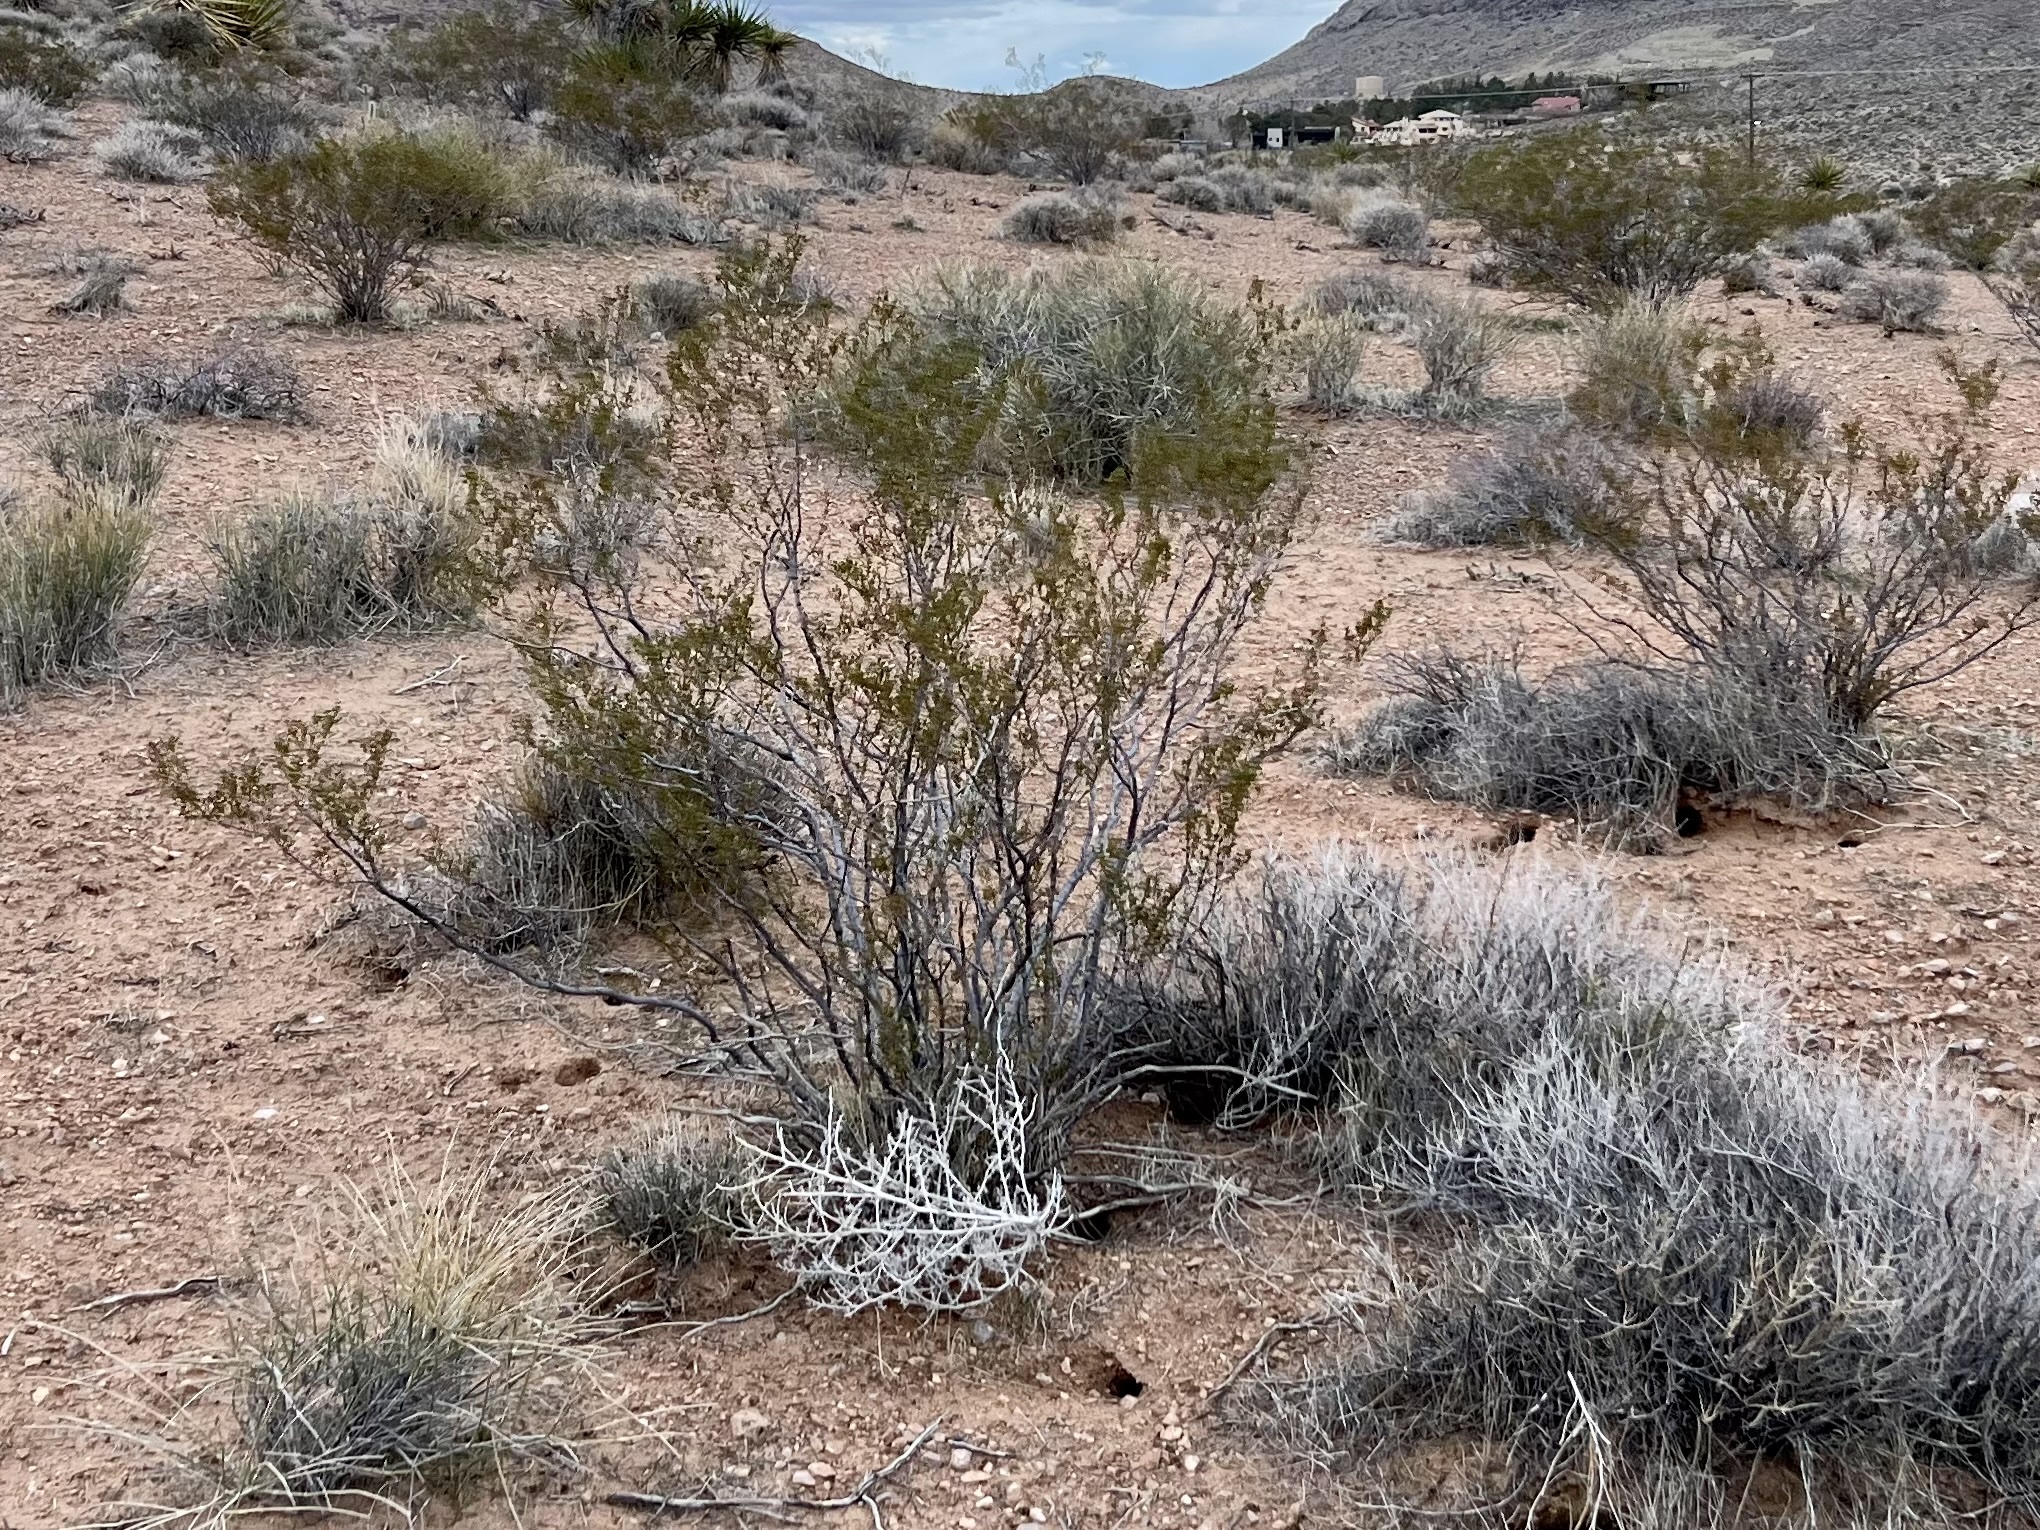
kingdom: Plantae
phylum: Tracheophyta
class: Magnoliopsida
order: Zygophyllales
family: Zygophyllaceae
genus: Larrea
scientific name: Larrea tridentata
